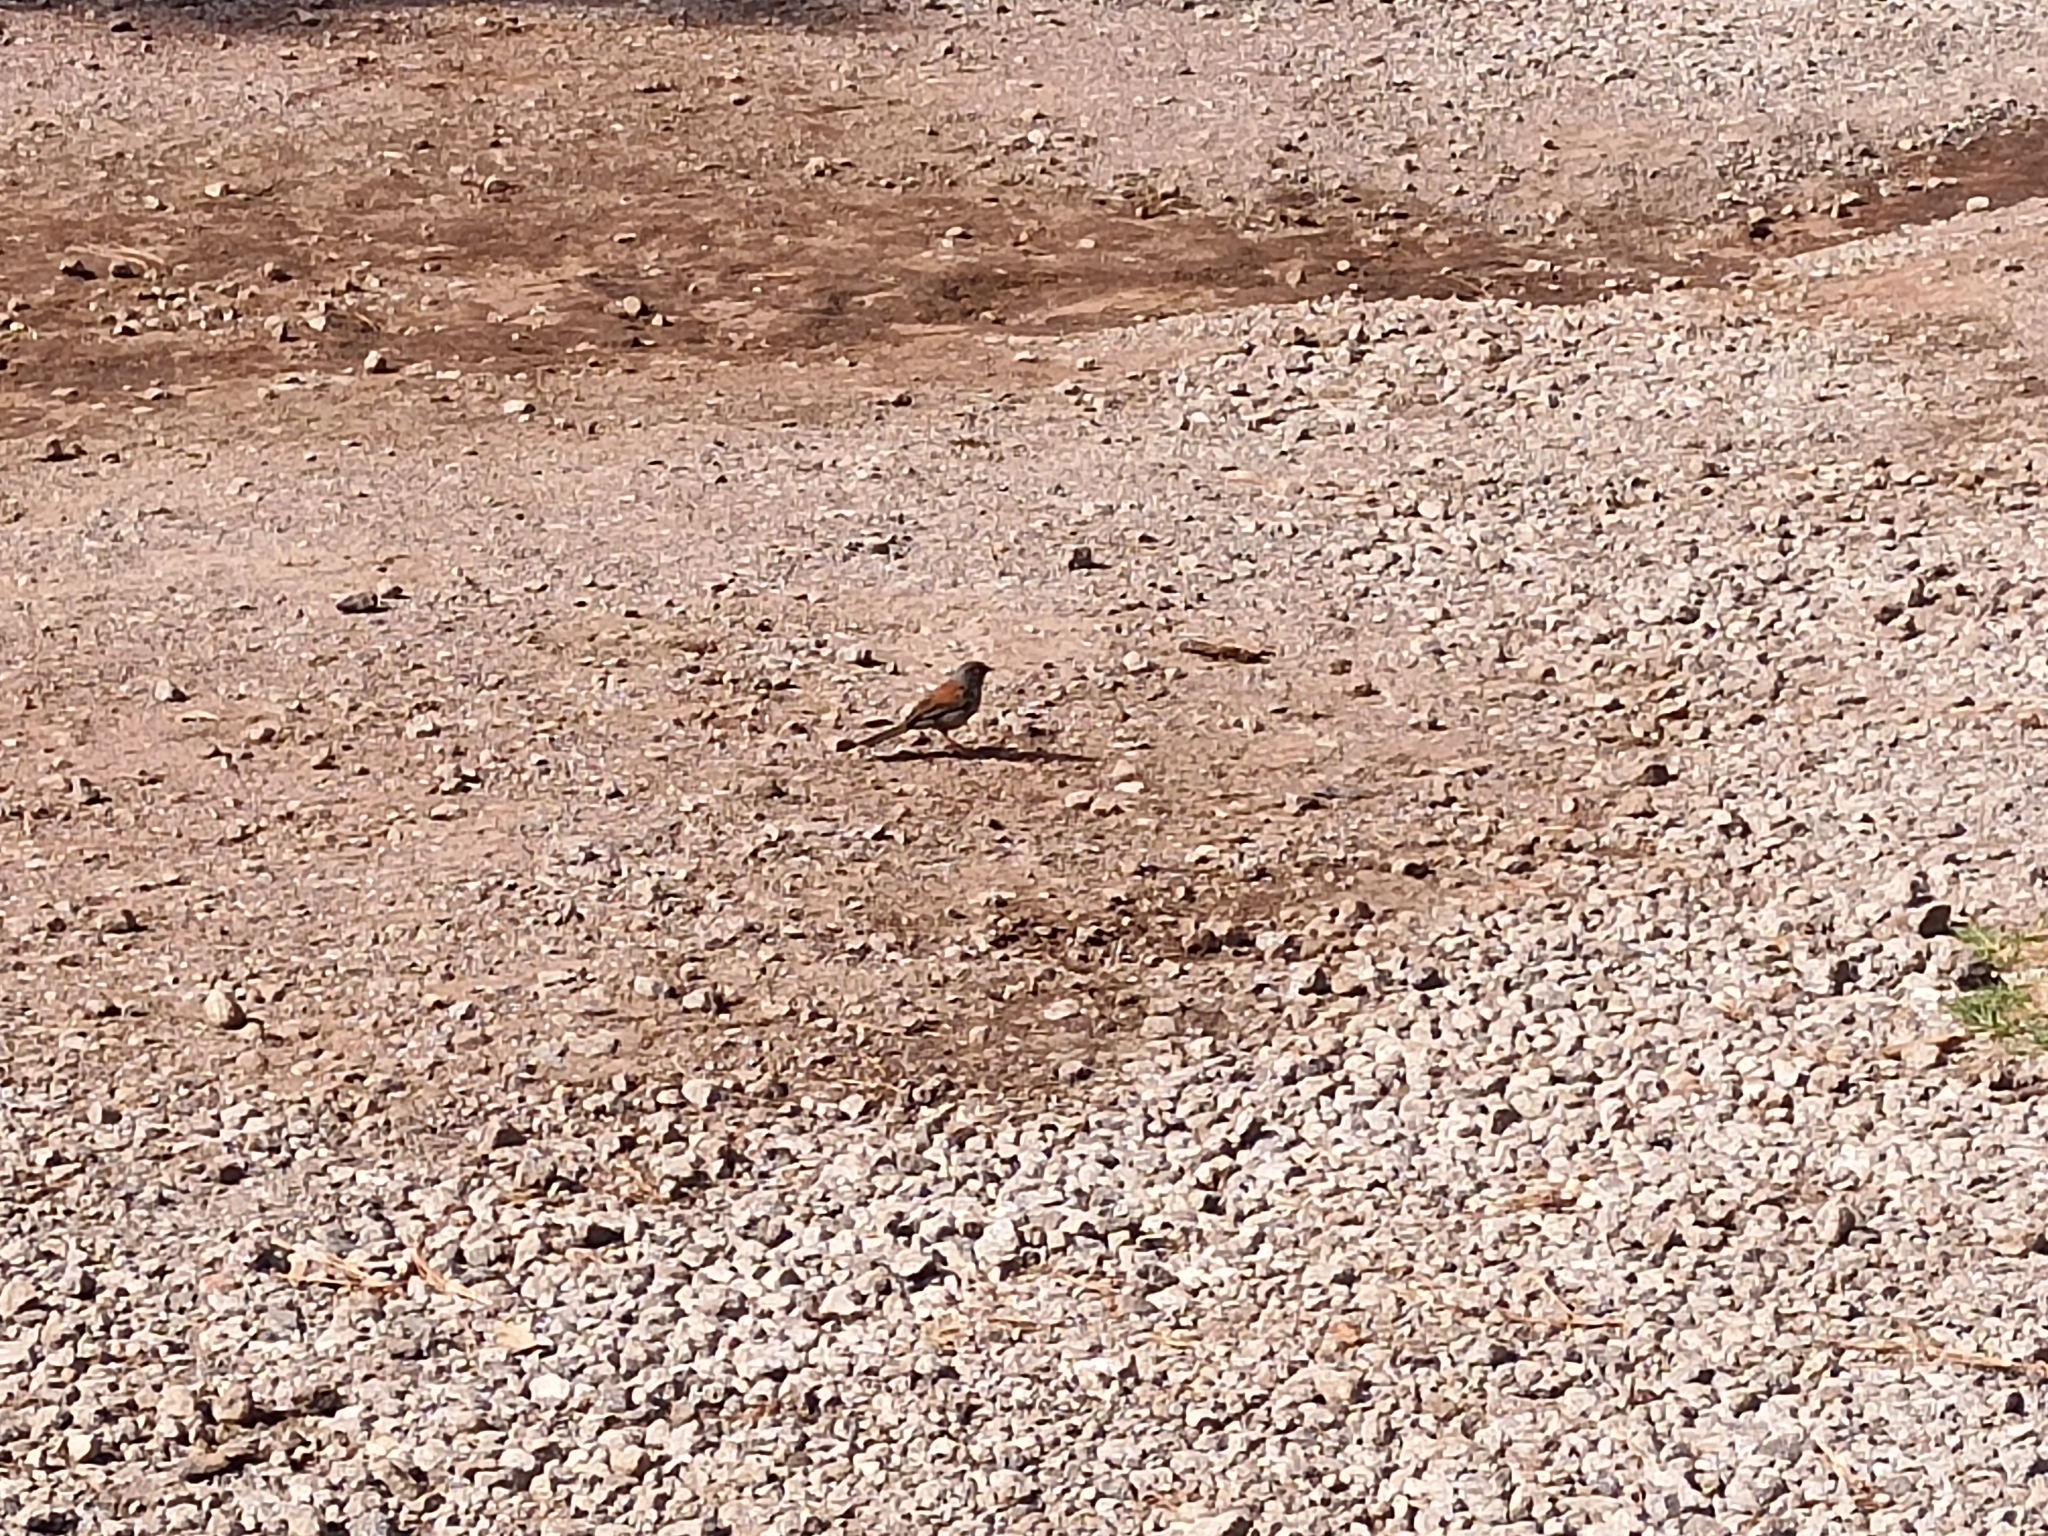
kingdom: Animalia
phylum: Chordata
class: Aves
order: Passeriformes
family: Passerellidae
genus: Junco
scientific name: Junco phaeonotus
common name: Yellow-eyed junco
